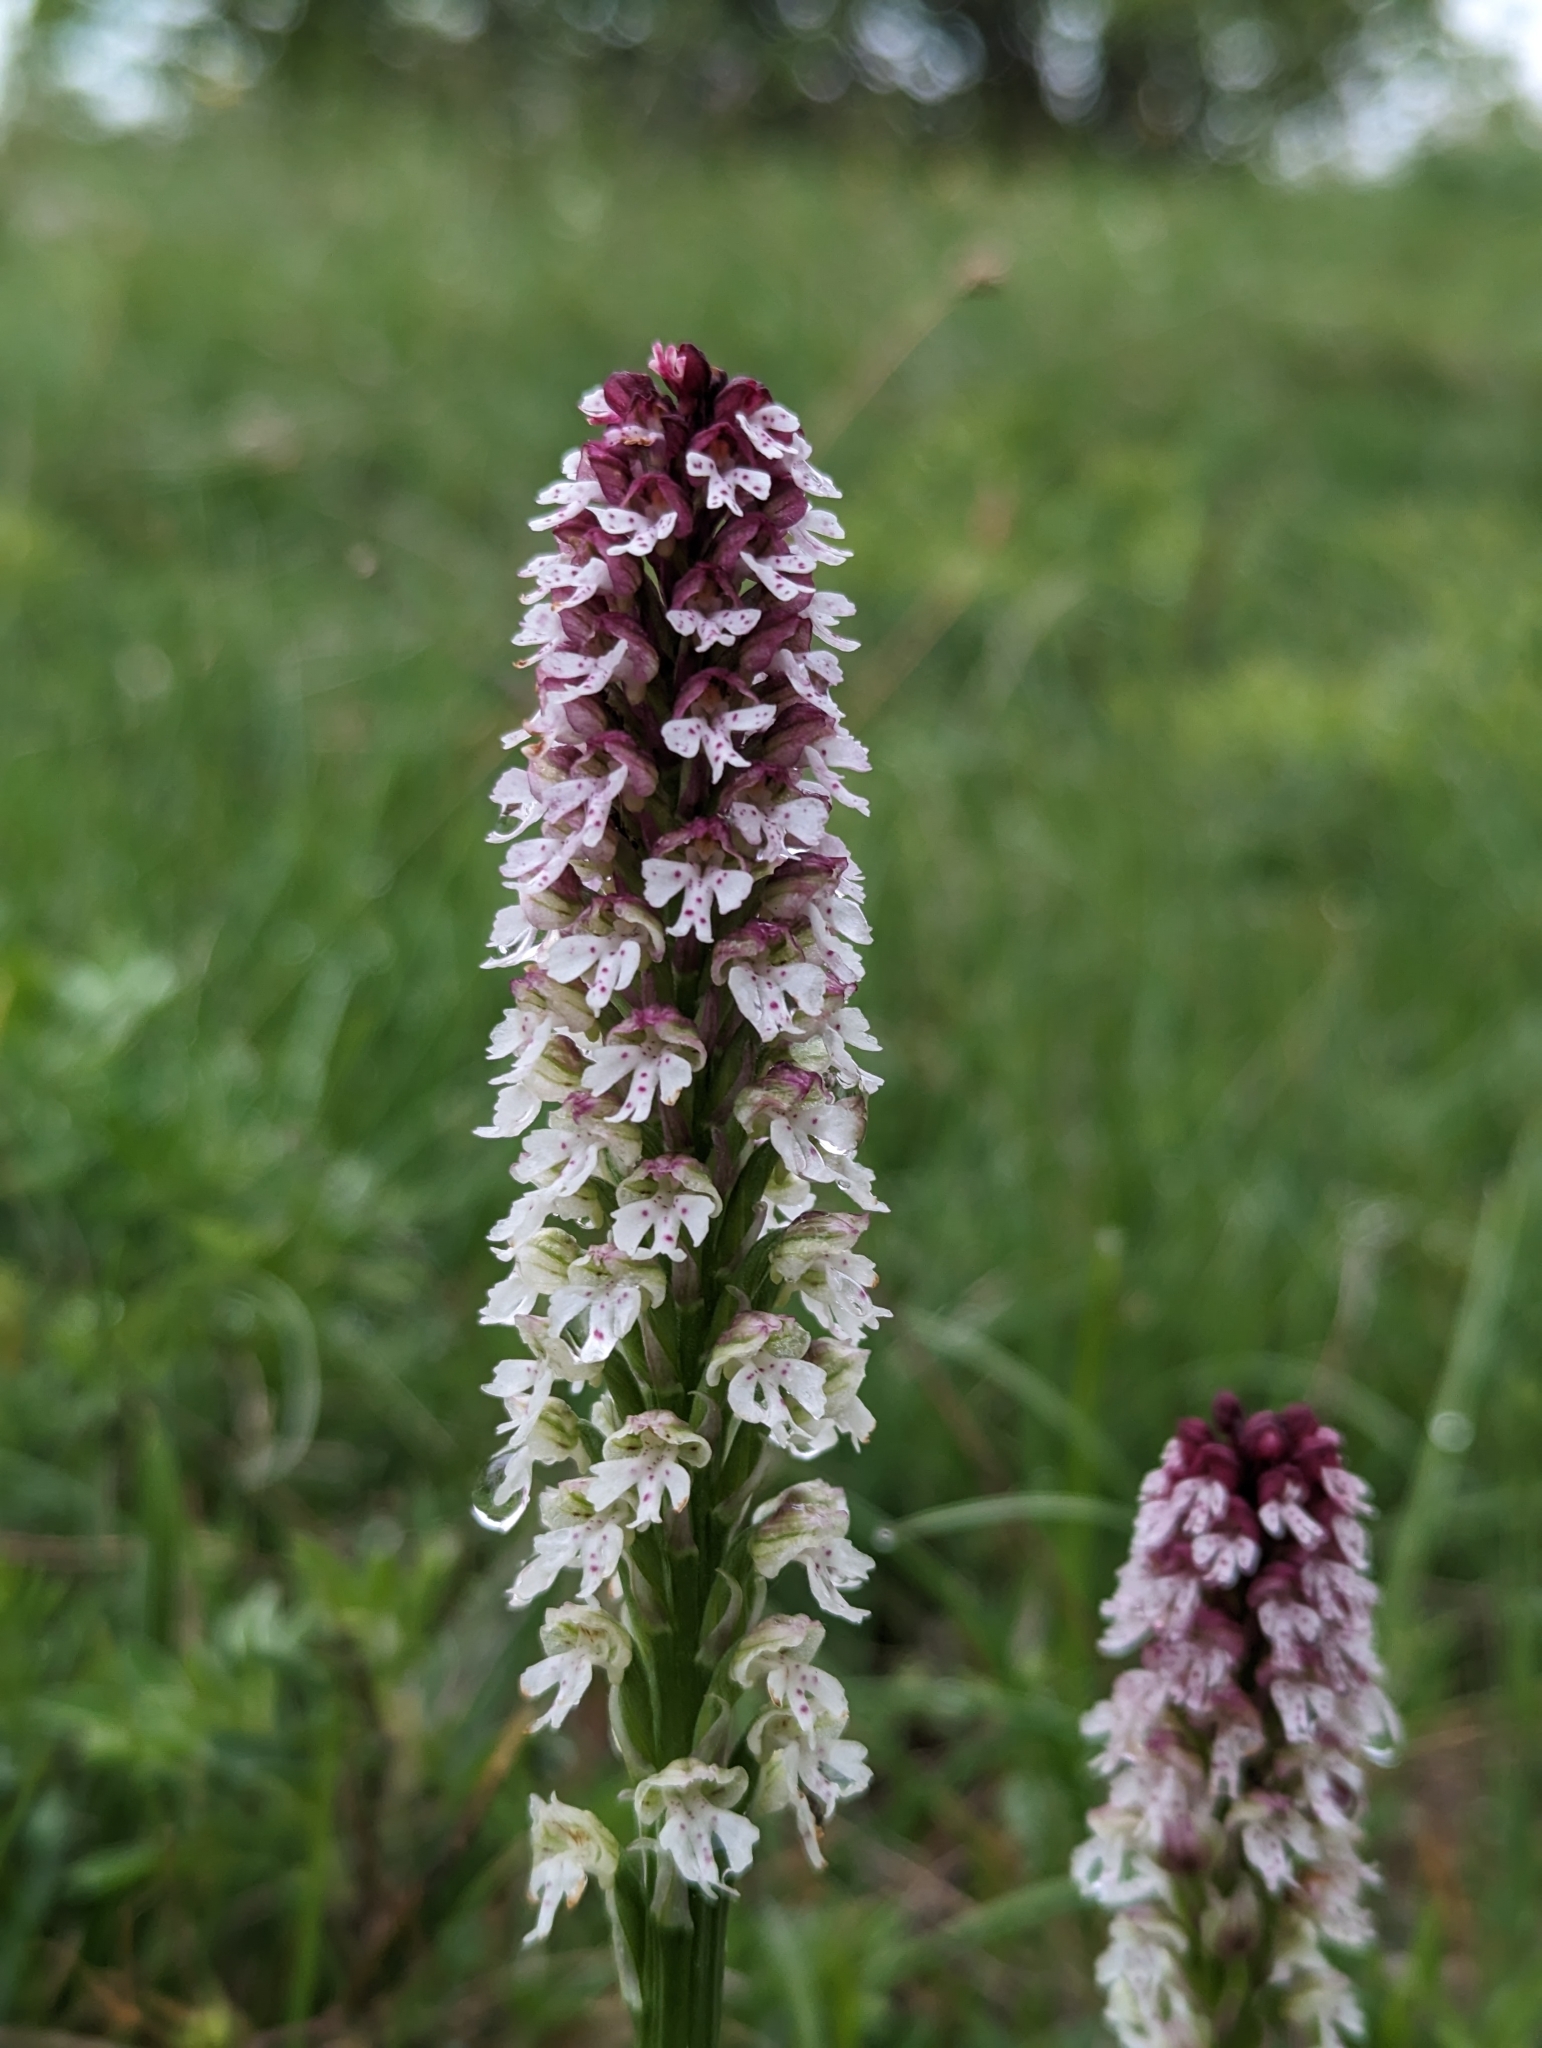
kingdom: Plantae
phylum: Tracheophyta
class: Liliopsida
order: Asparagales
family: Orchidaceae
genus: Neotinea
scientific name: Neotinea ustulata
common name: Burnt orchid
